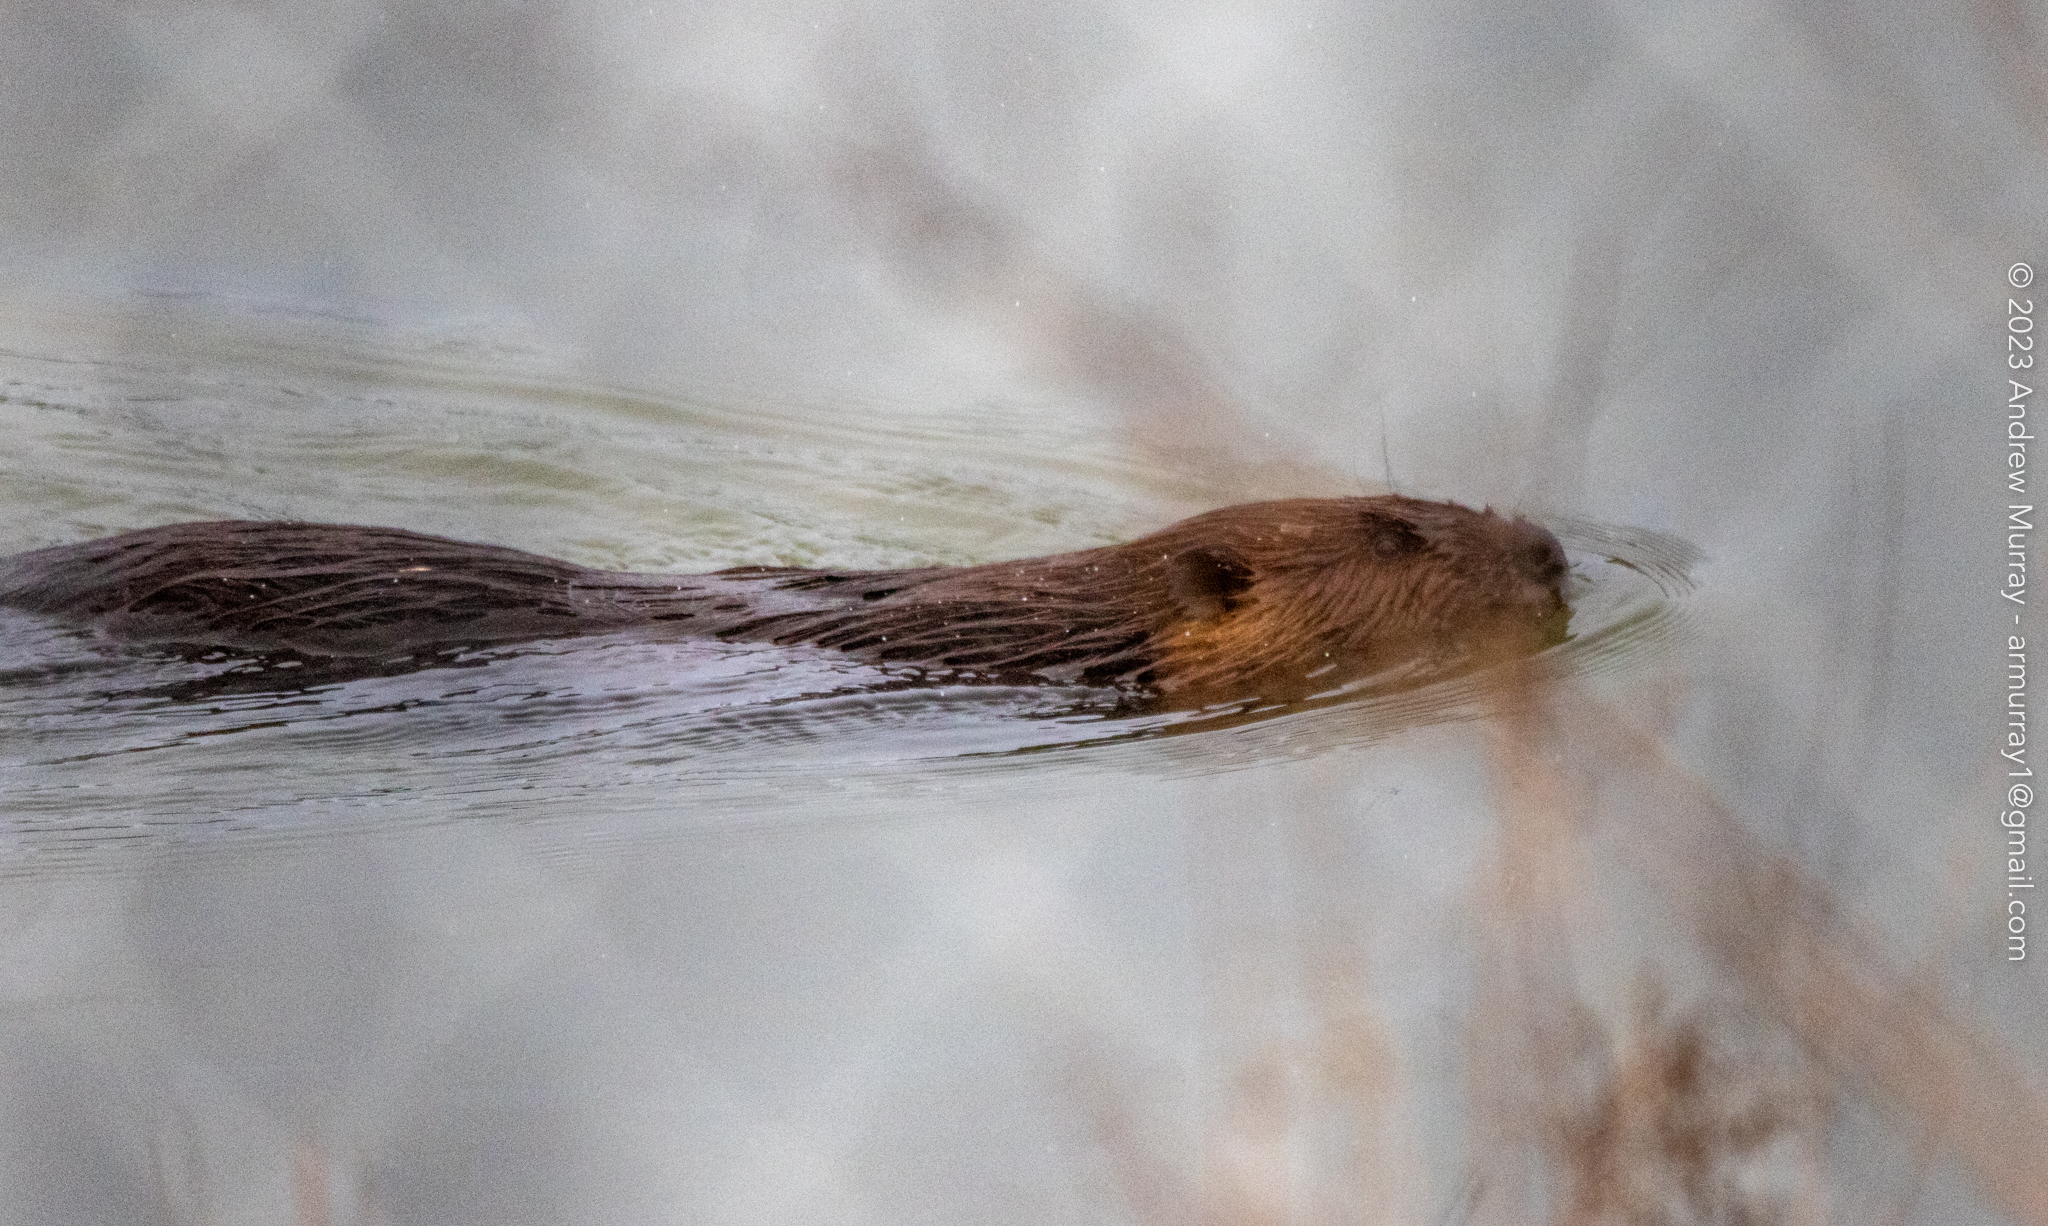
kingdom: Animalia
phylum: Chordata
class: Mammalia
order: Rodentia
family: Castoridae
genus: Castor
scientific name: Castor canadensis
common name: American beaver
